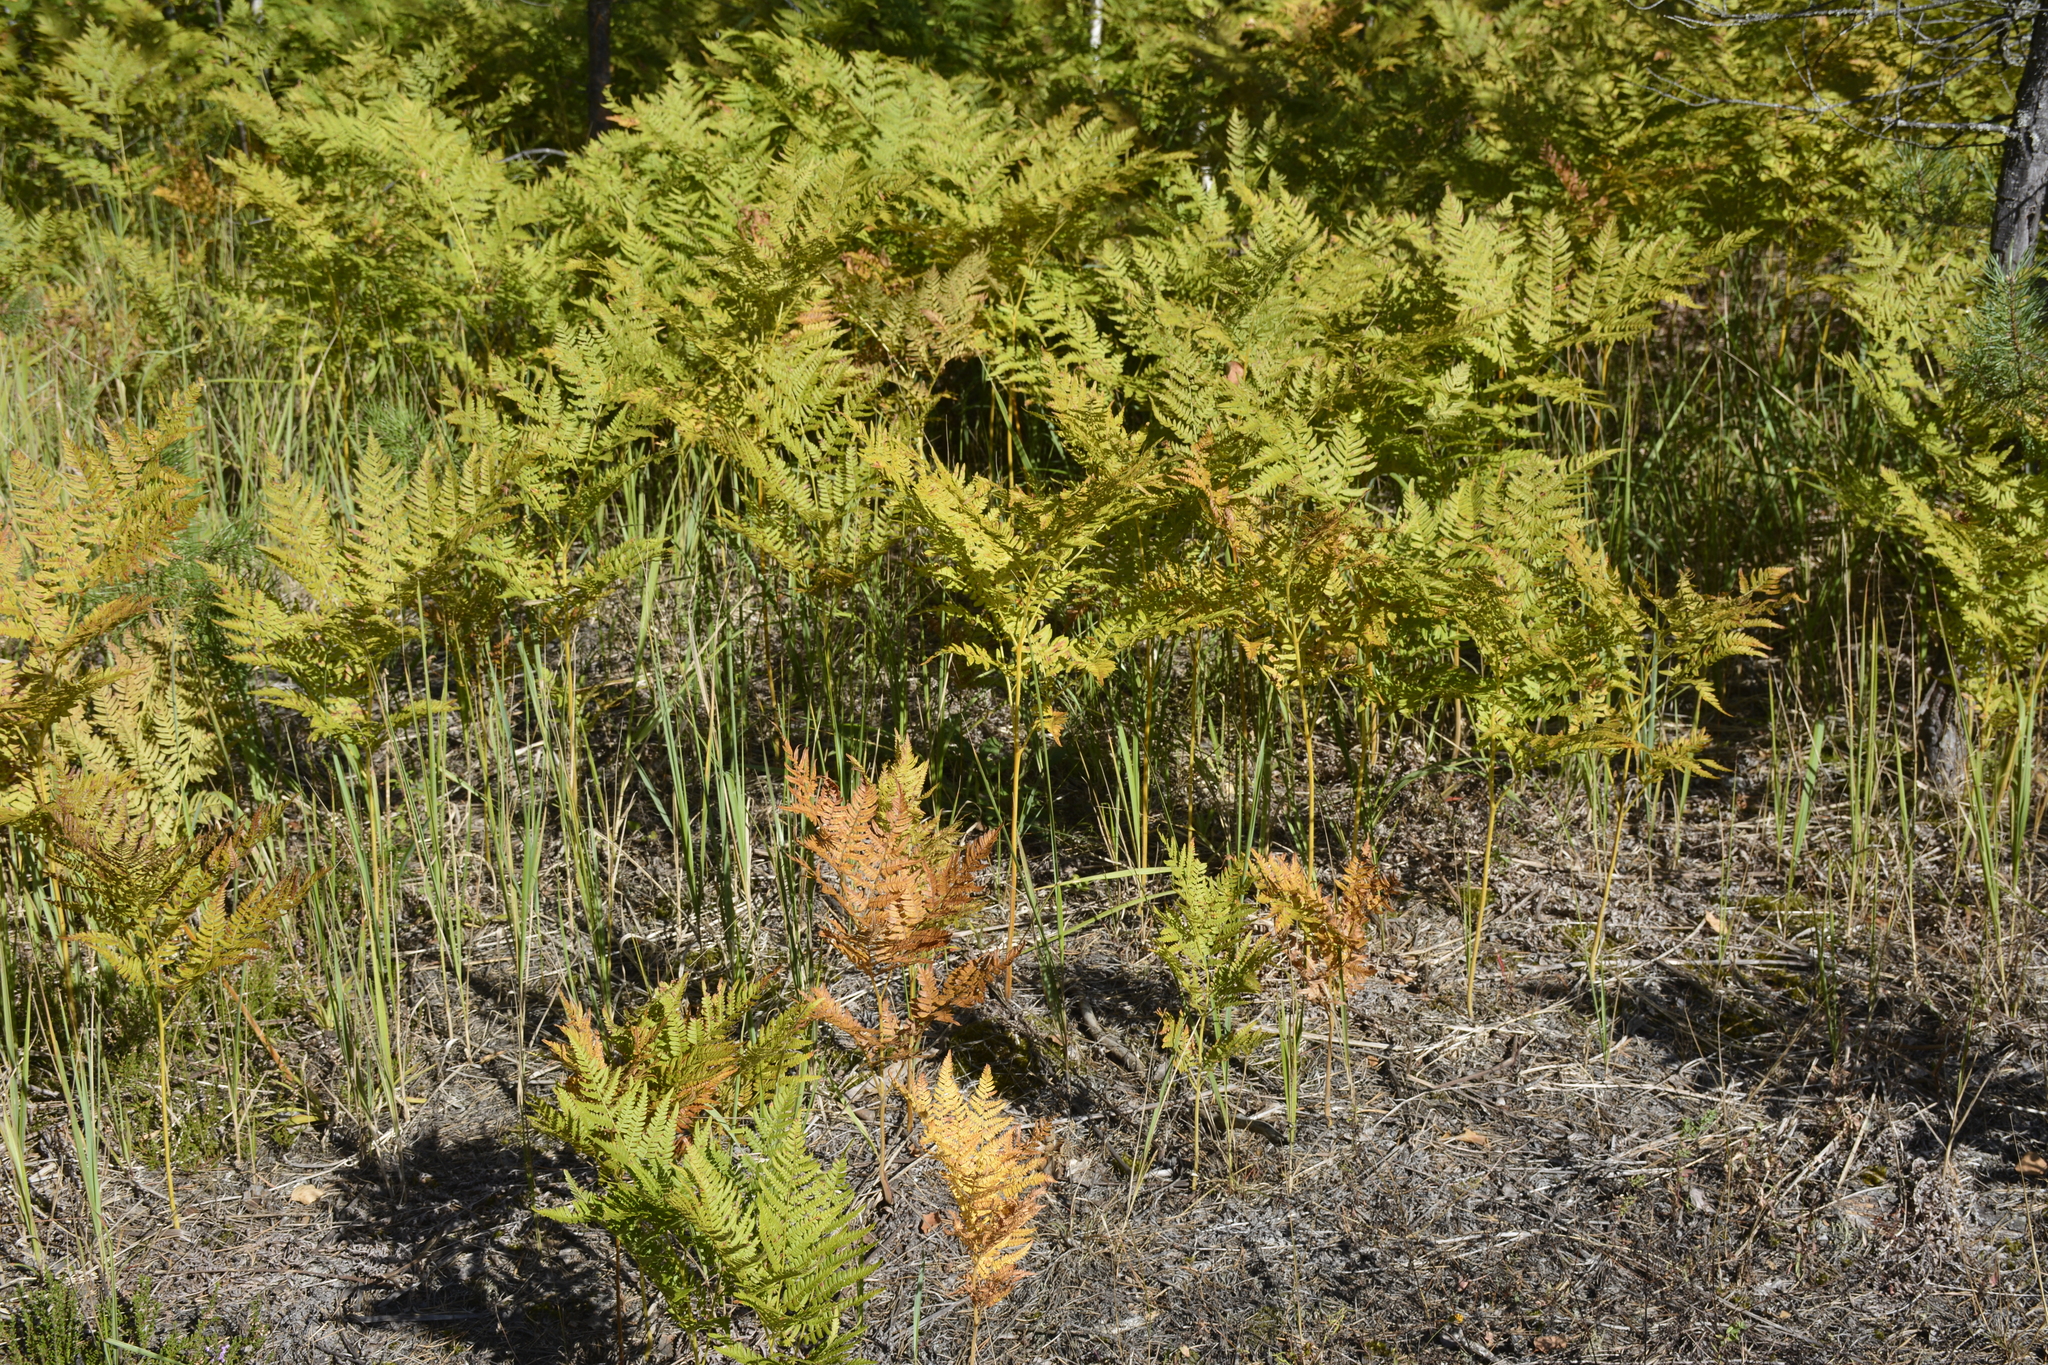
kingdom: Plantae
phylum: Tracheophyta
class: Polypodiopsida
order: Polypodiales
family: Dennstaedtiaceae
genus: Pteridium
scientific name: Pteridium aquilinum
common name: Bracken
